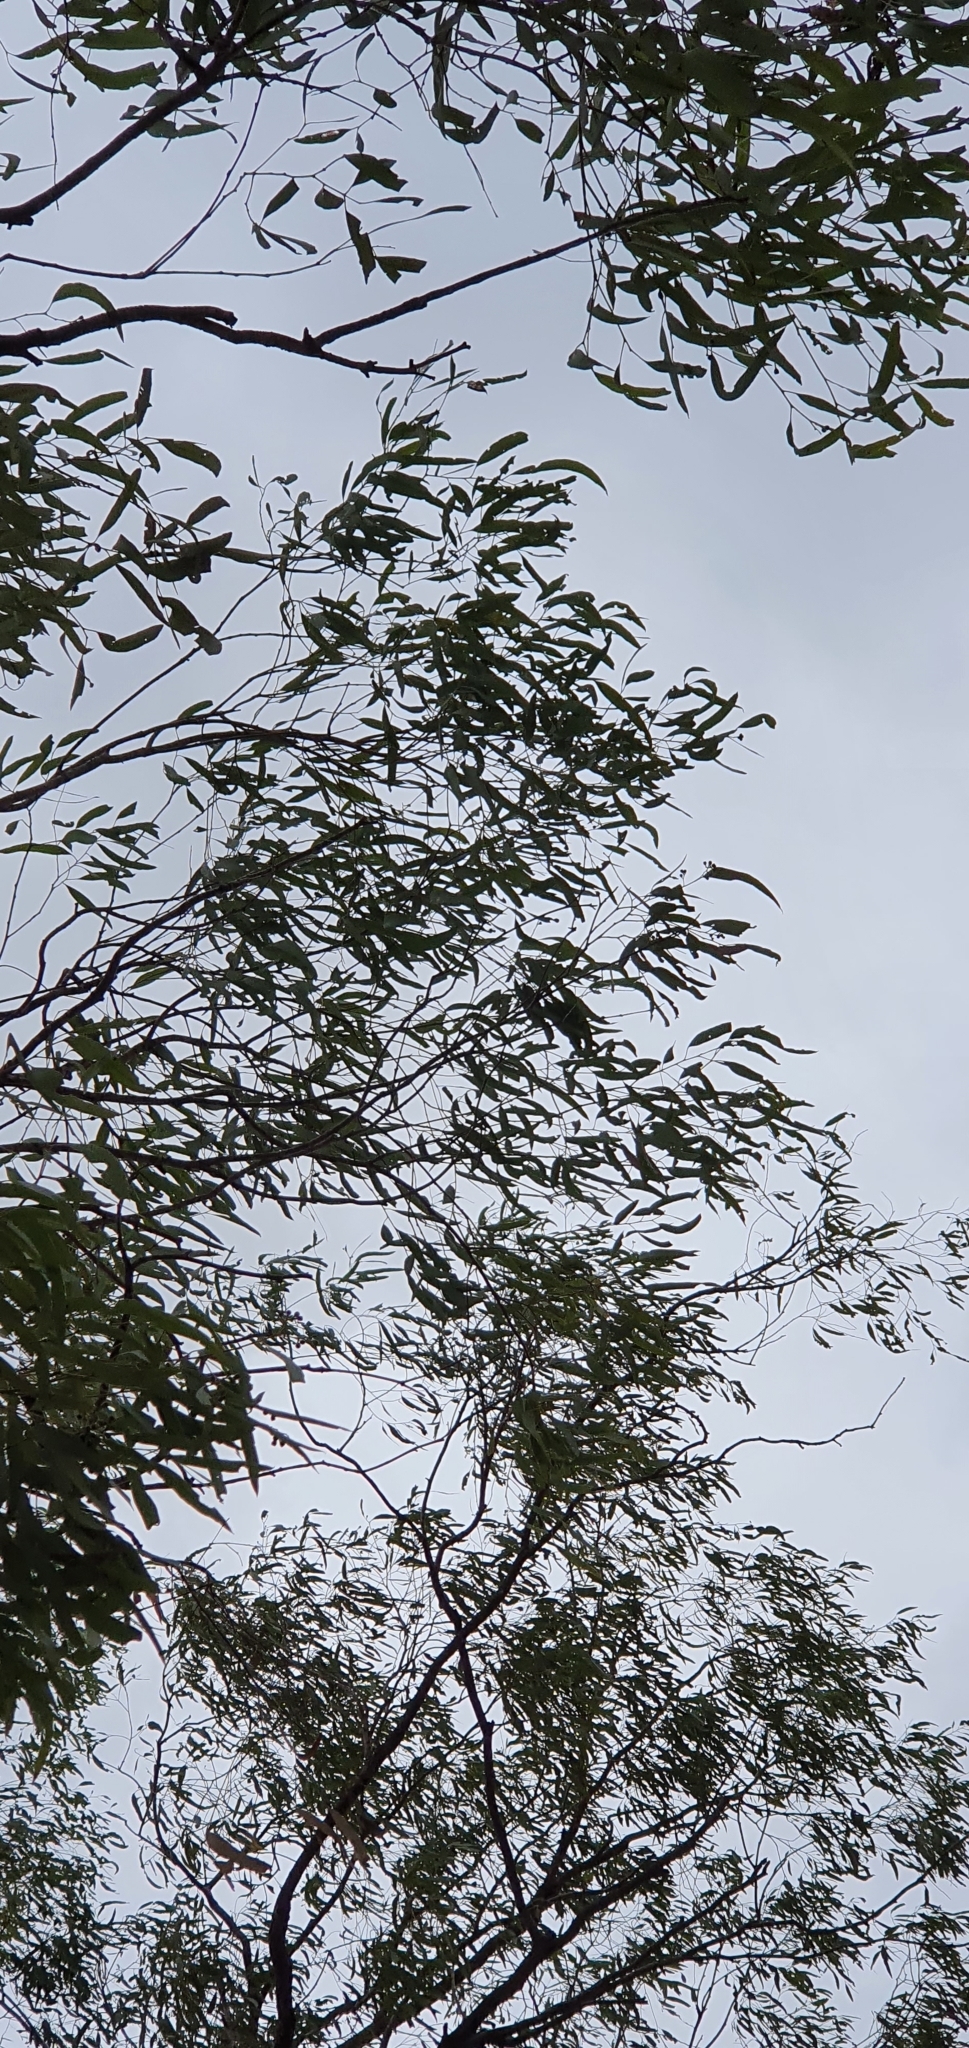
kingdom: Plantae
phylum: Tracheophyta
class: Magnoliopsida
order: Myrtales
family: Myrtaceae
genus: Eucalyptus
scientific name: Eucalyptus crebra
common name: Narrowleaf red ironbark
